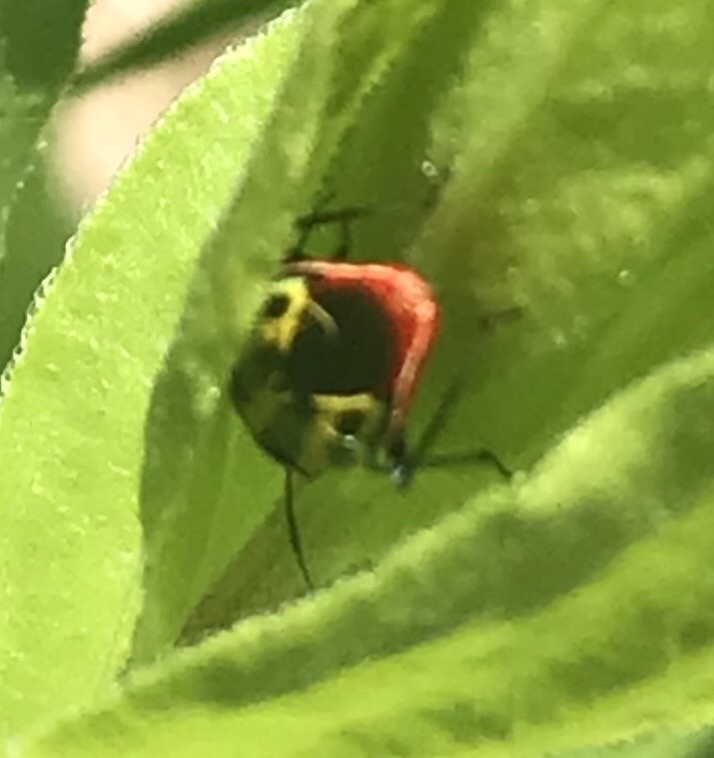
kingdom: Animalia
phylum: Arthropoda
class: Insecta
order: Hemiptera
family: Miridae
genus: Poecilocapsus
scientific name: Poecilocapsus lineatus
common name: Four-lined plant bug
